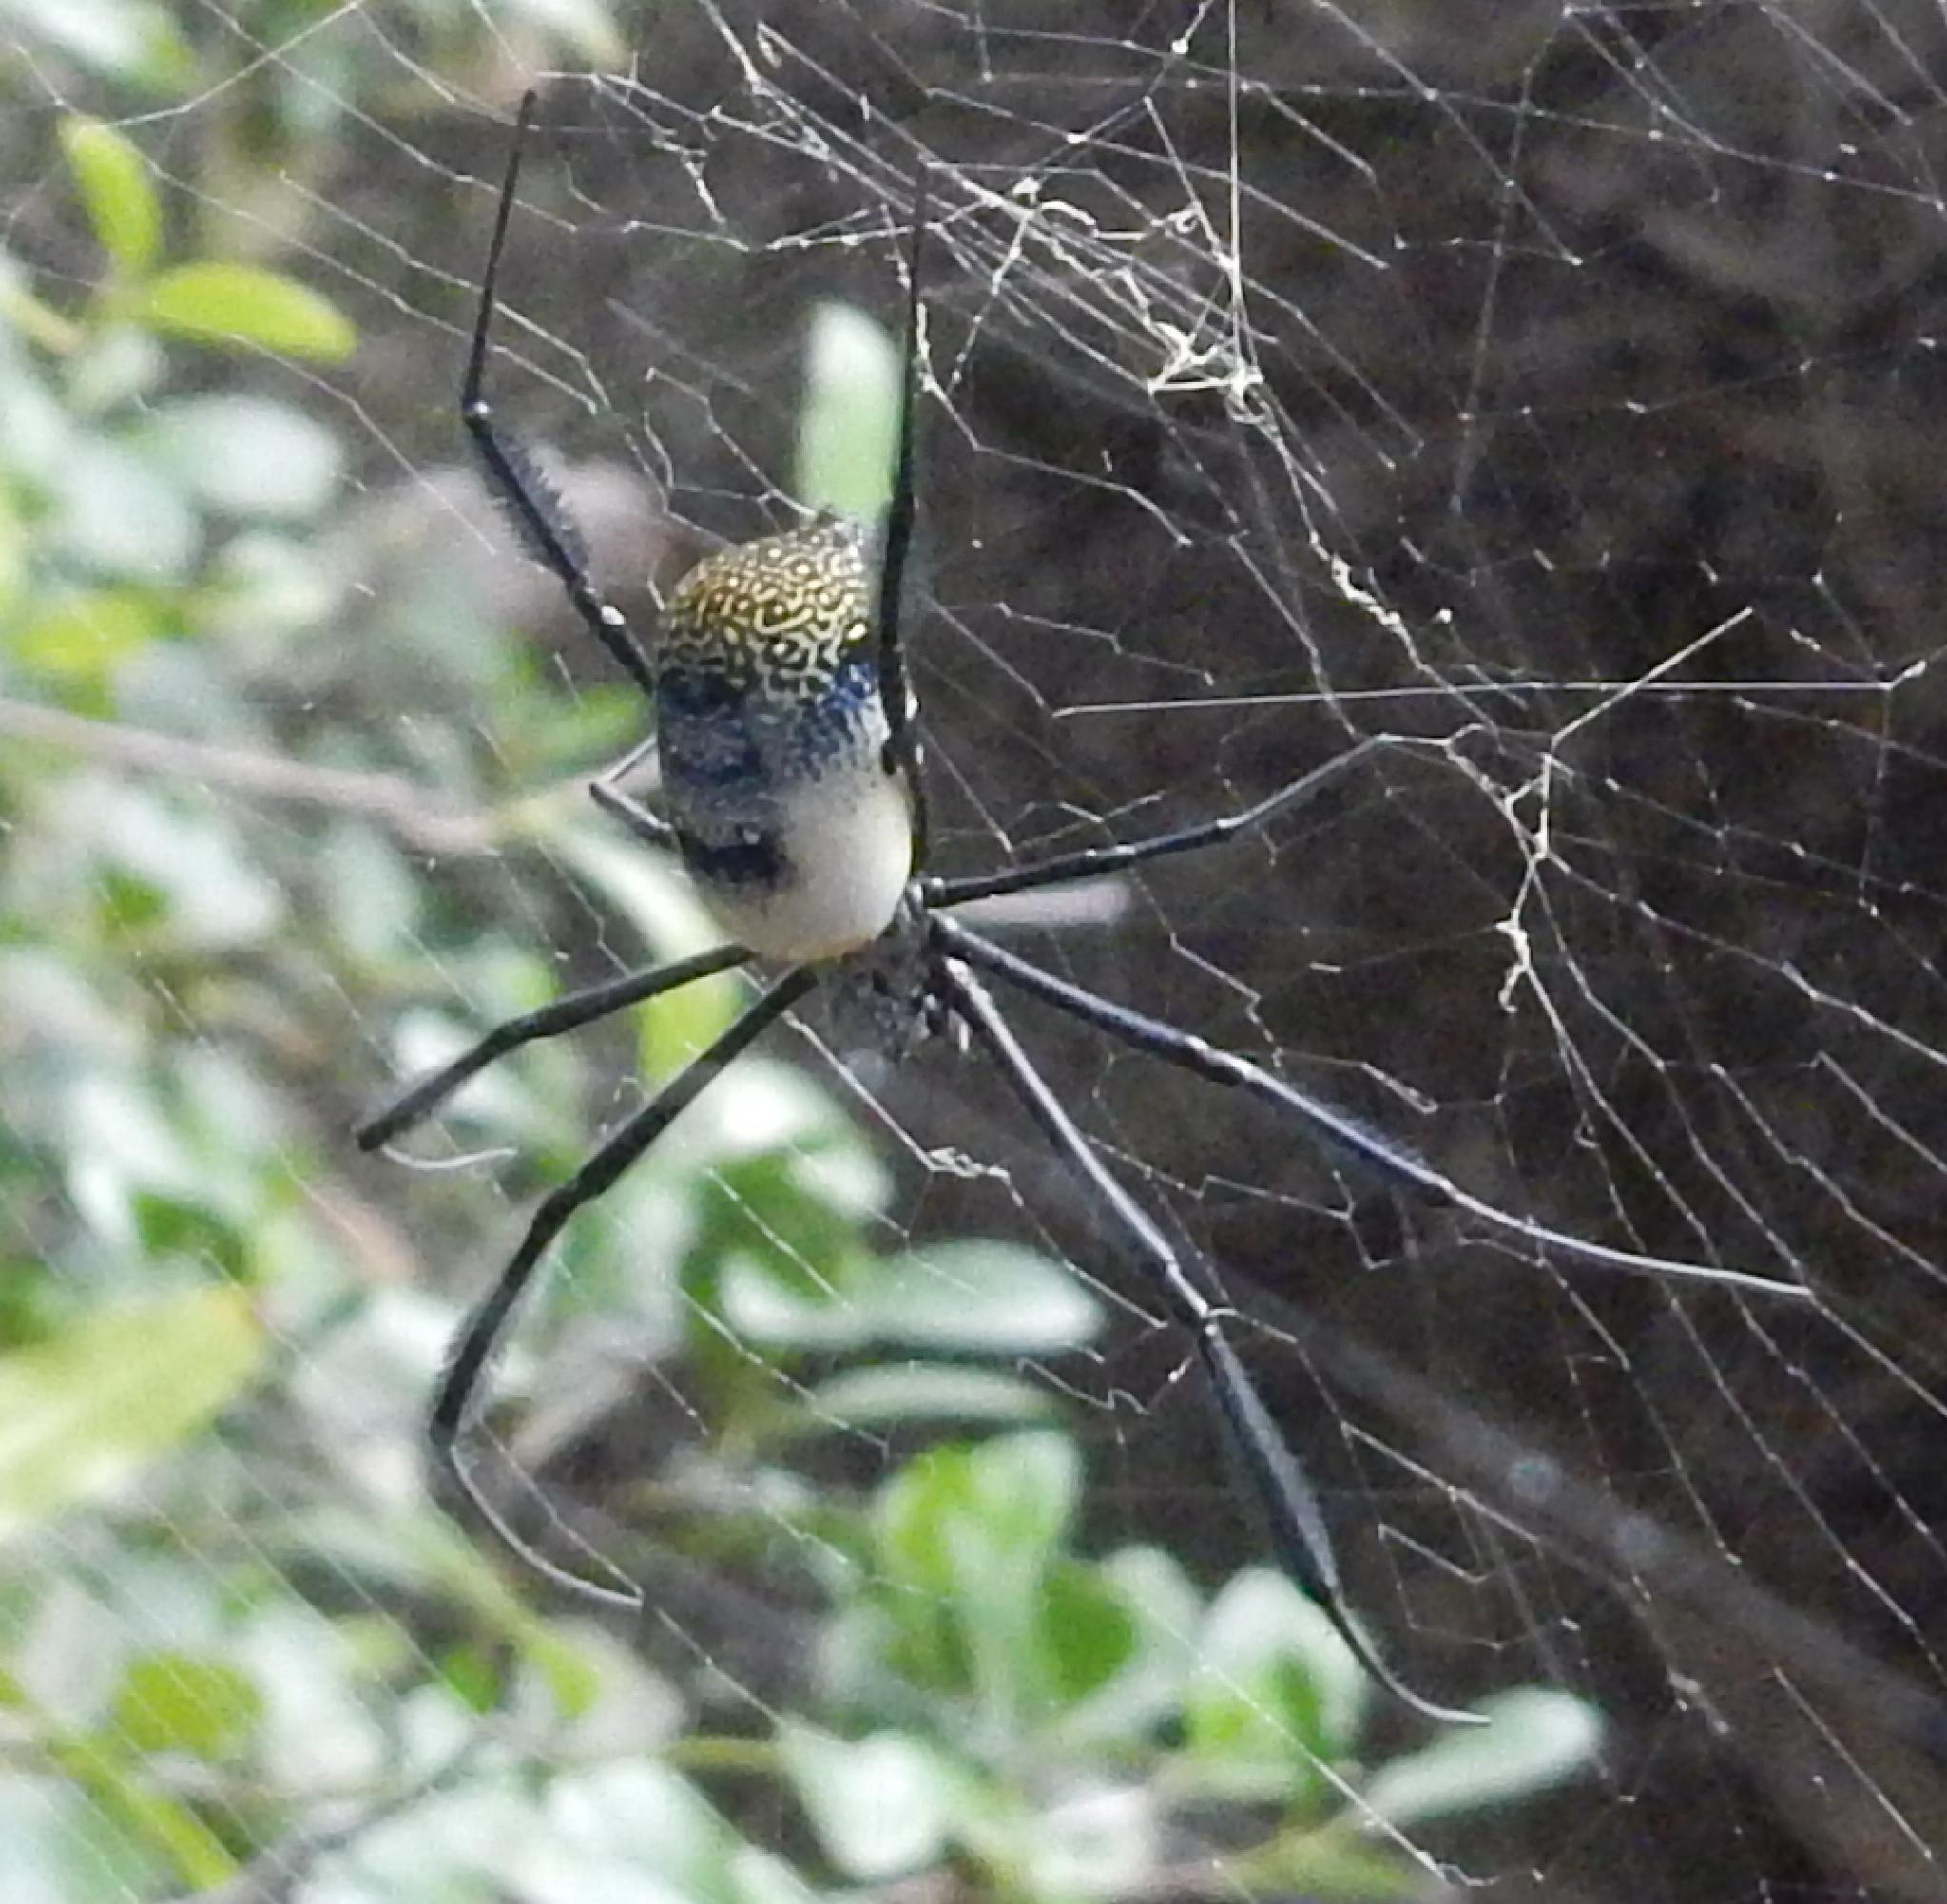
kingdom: Animalia
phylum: Arthropoda
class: Arachnida
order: Araneae
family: Araneidae
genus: Trichonephila
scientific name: Trichonephila fenestrata
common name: Hairy golden orb weaver
